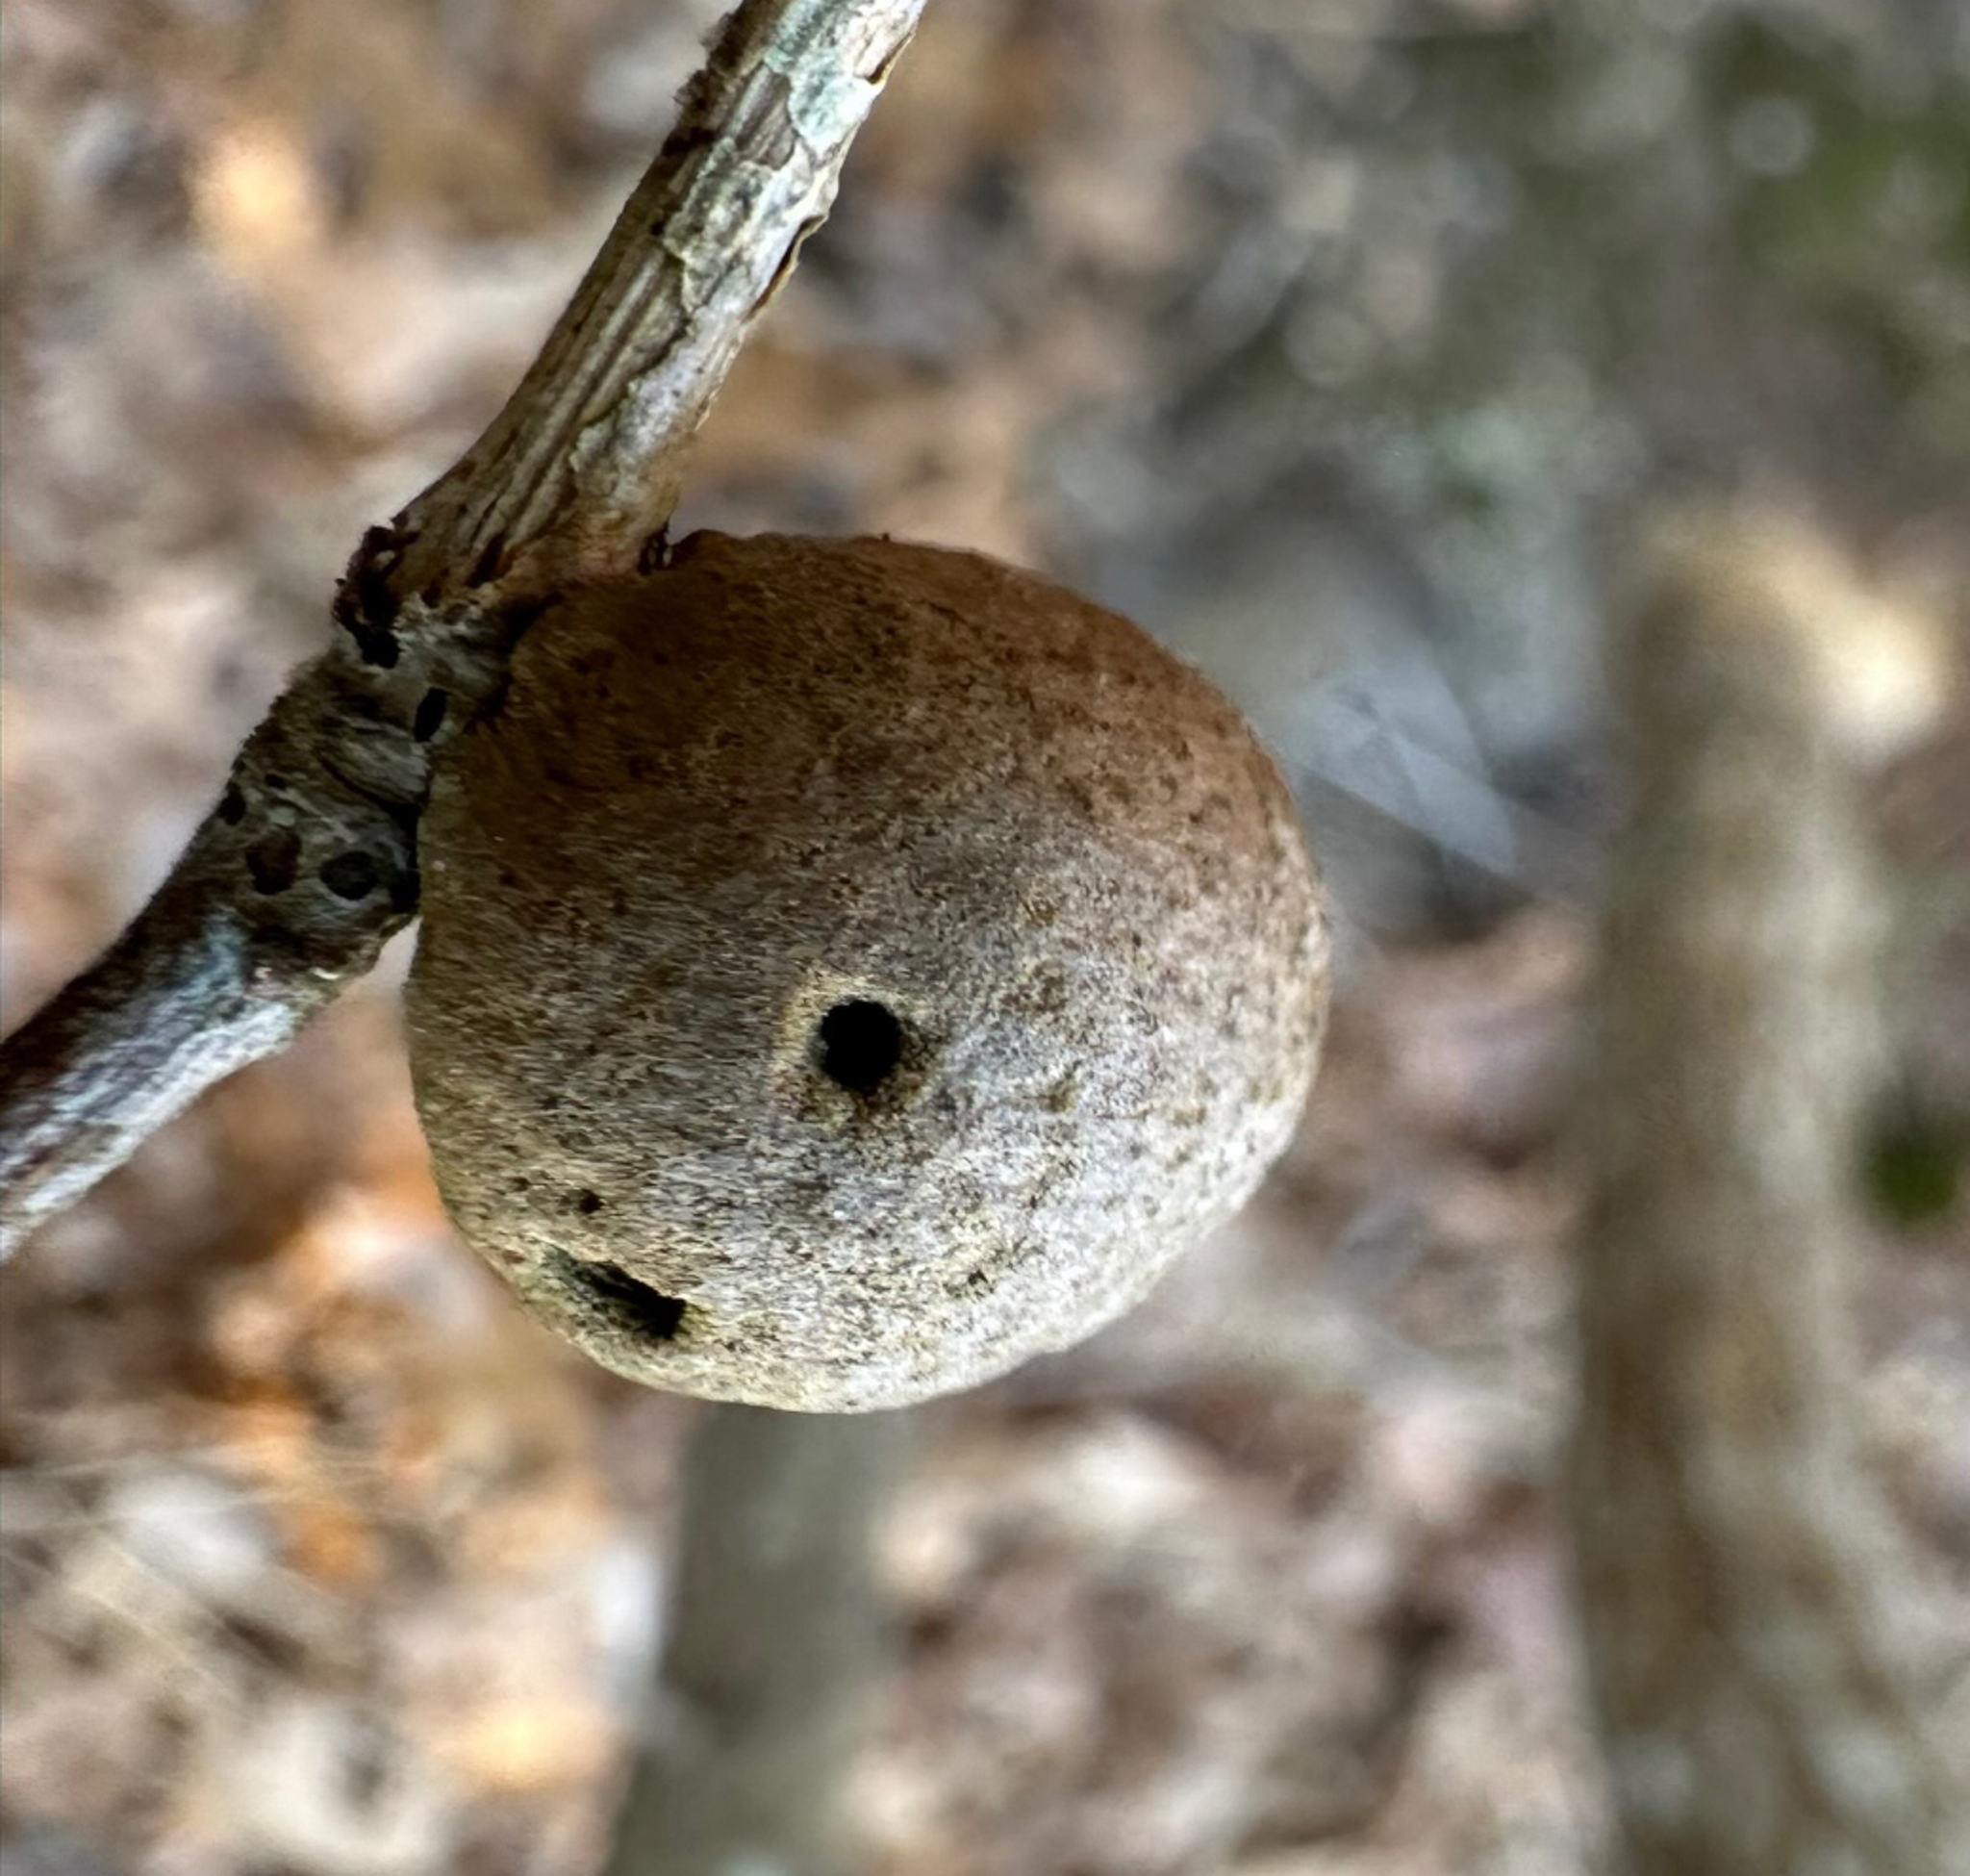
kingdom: Animalia
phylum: Arthropoda
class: Insecta
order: Hymenoptera
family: Cynipidae
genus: Disholcaspis
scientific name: Disholcaspis quercusglobulus
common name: Round bullet gall wasp
